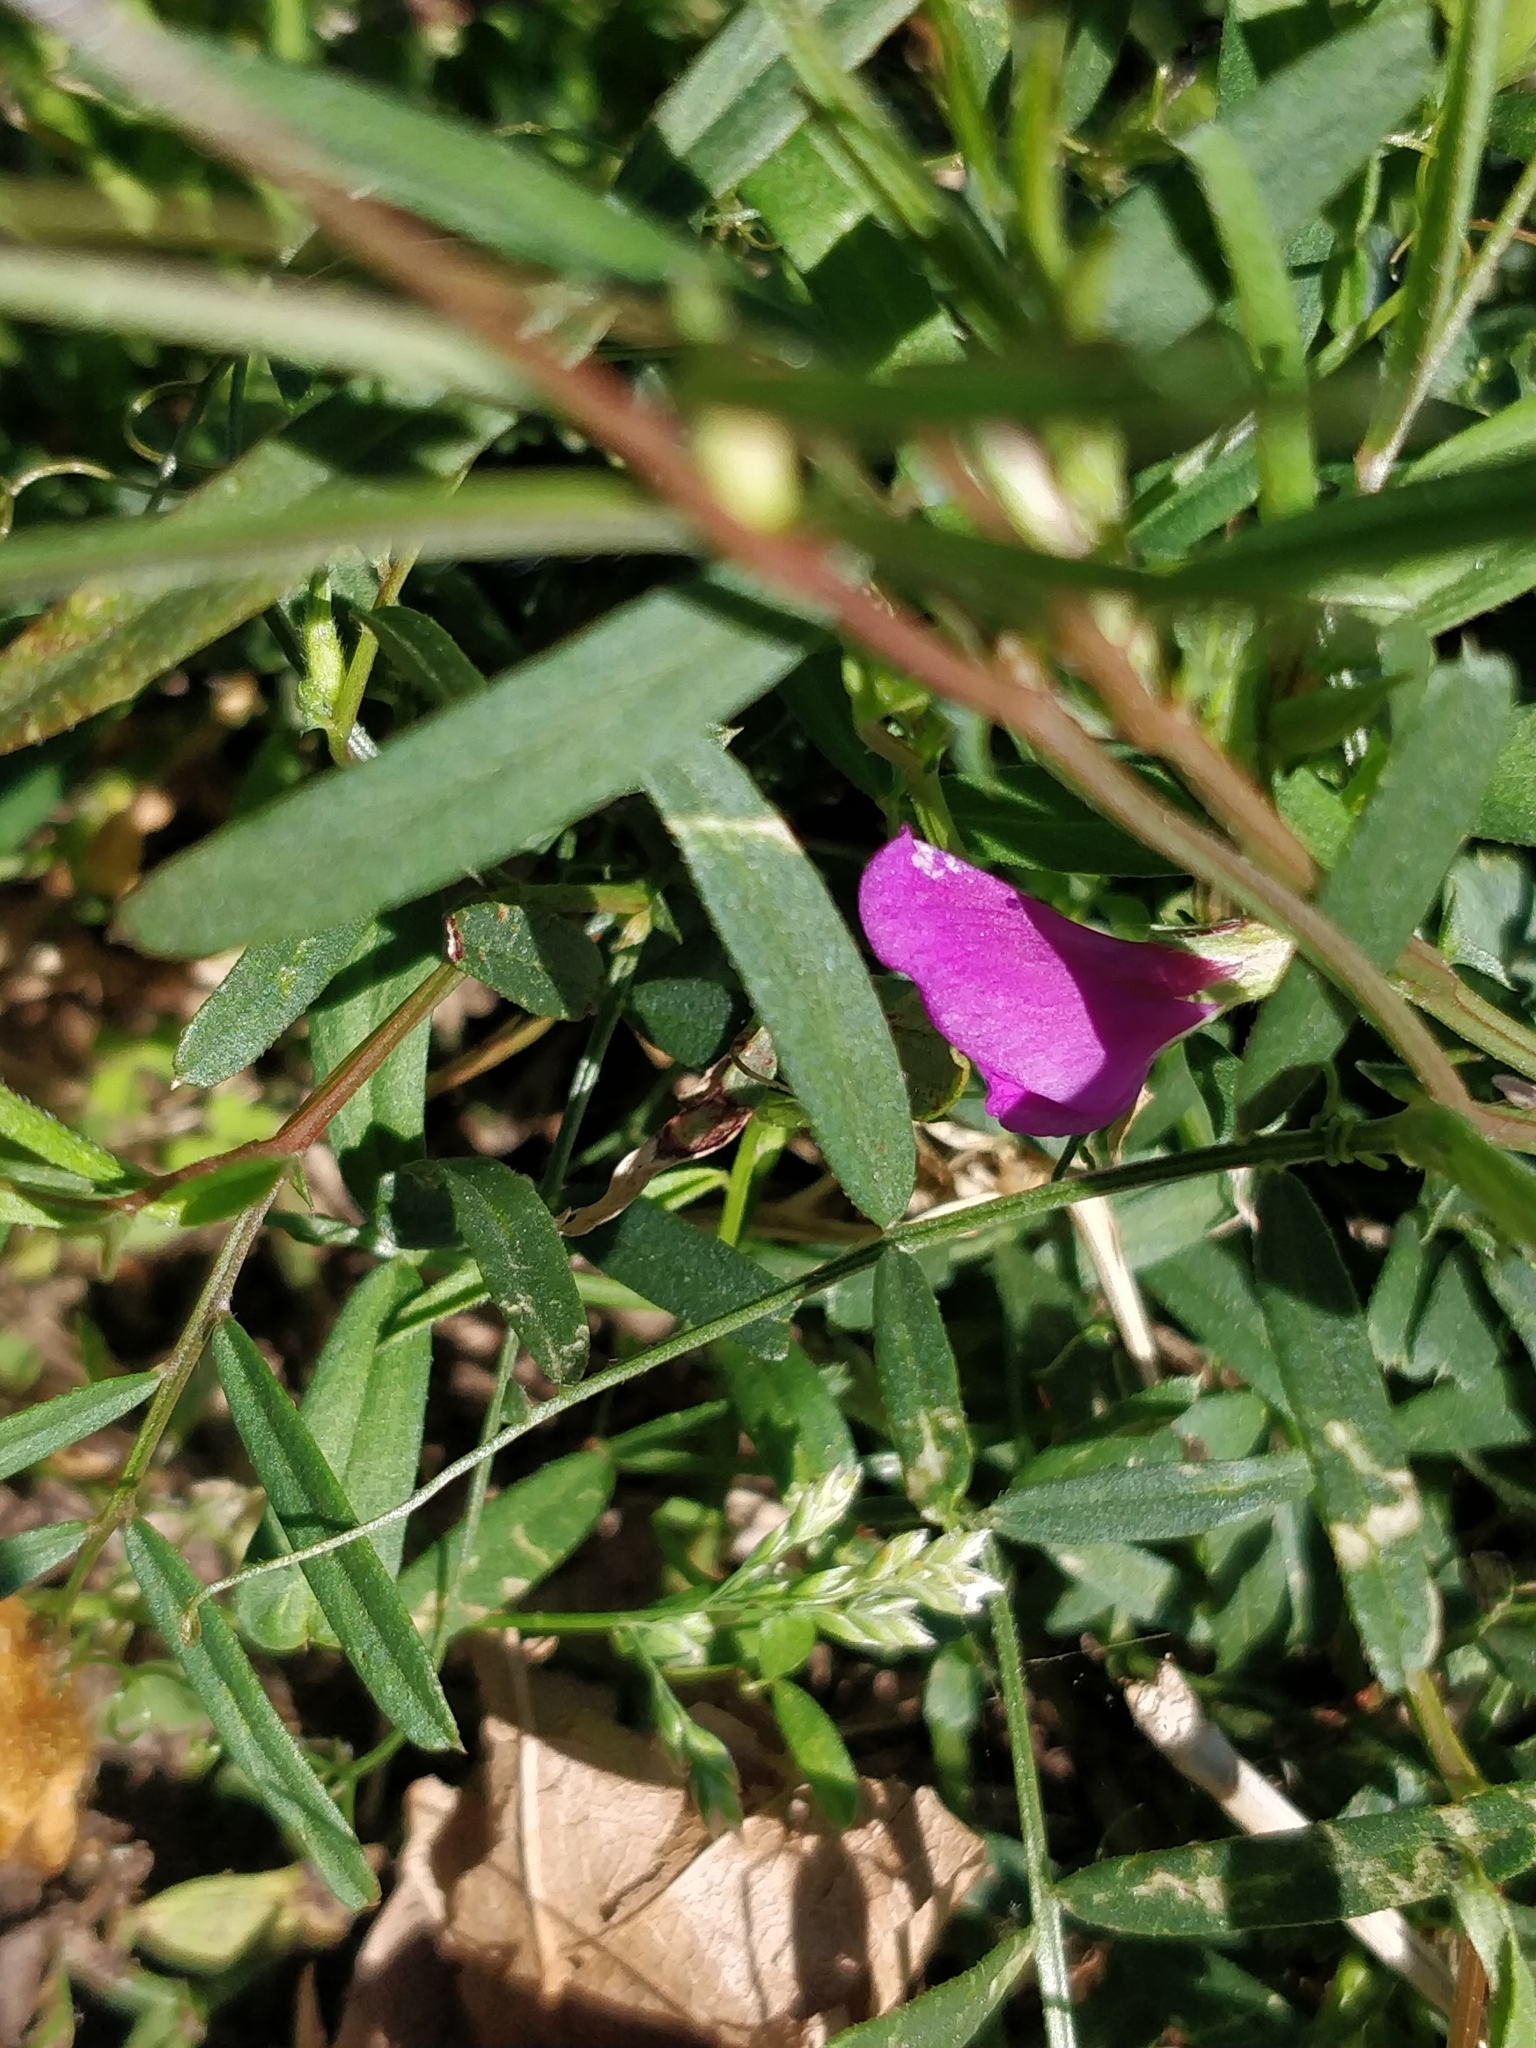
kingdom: Plantae
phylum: Tracheophyta
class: Magnoliopsida
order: Fabales
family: Fabaceae
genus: Vicia
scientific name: Vicia sativa
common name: Garden vetch
